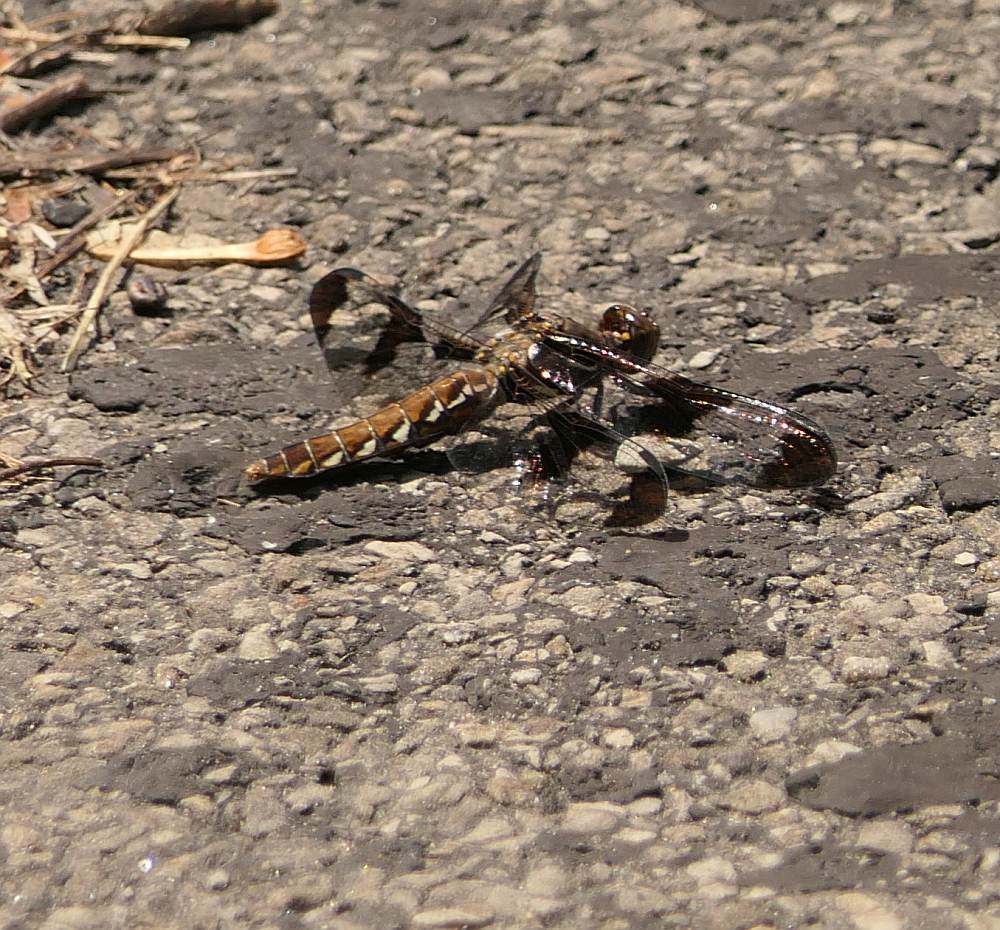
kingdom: Animalia
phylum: Arthropoda
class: Insecta
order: Odonata
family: Libellulidae
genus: Plathemis
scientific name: Plathemis lydia
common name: Common whitetail
